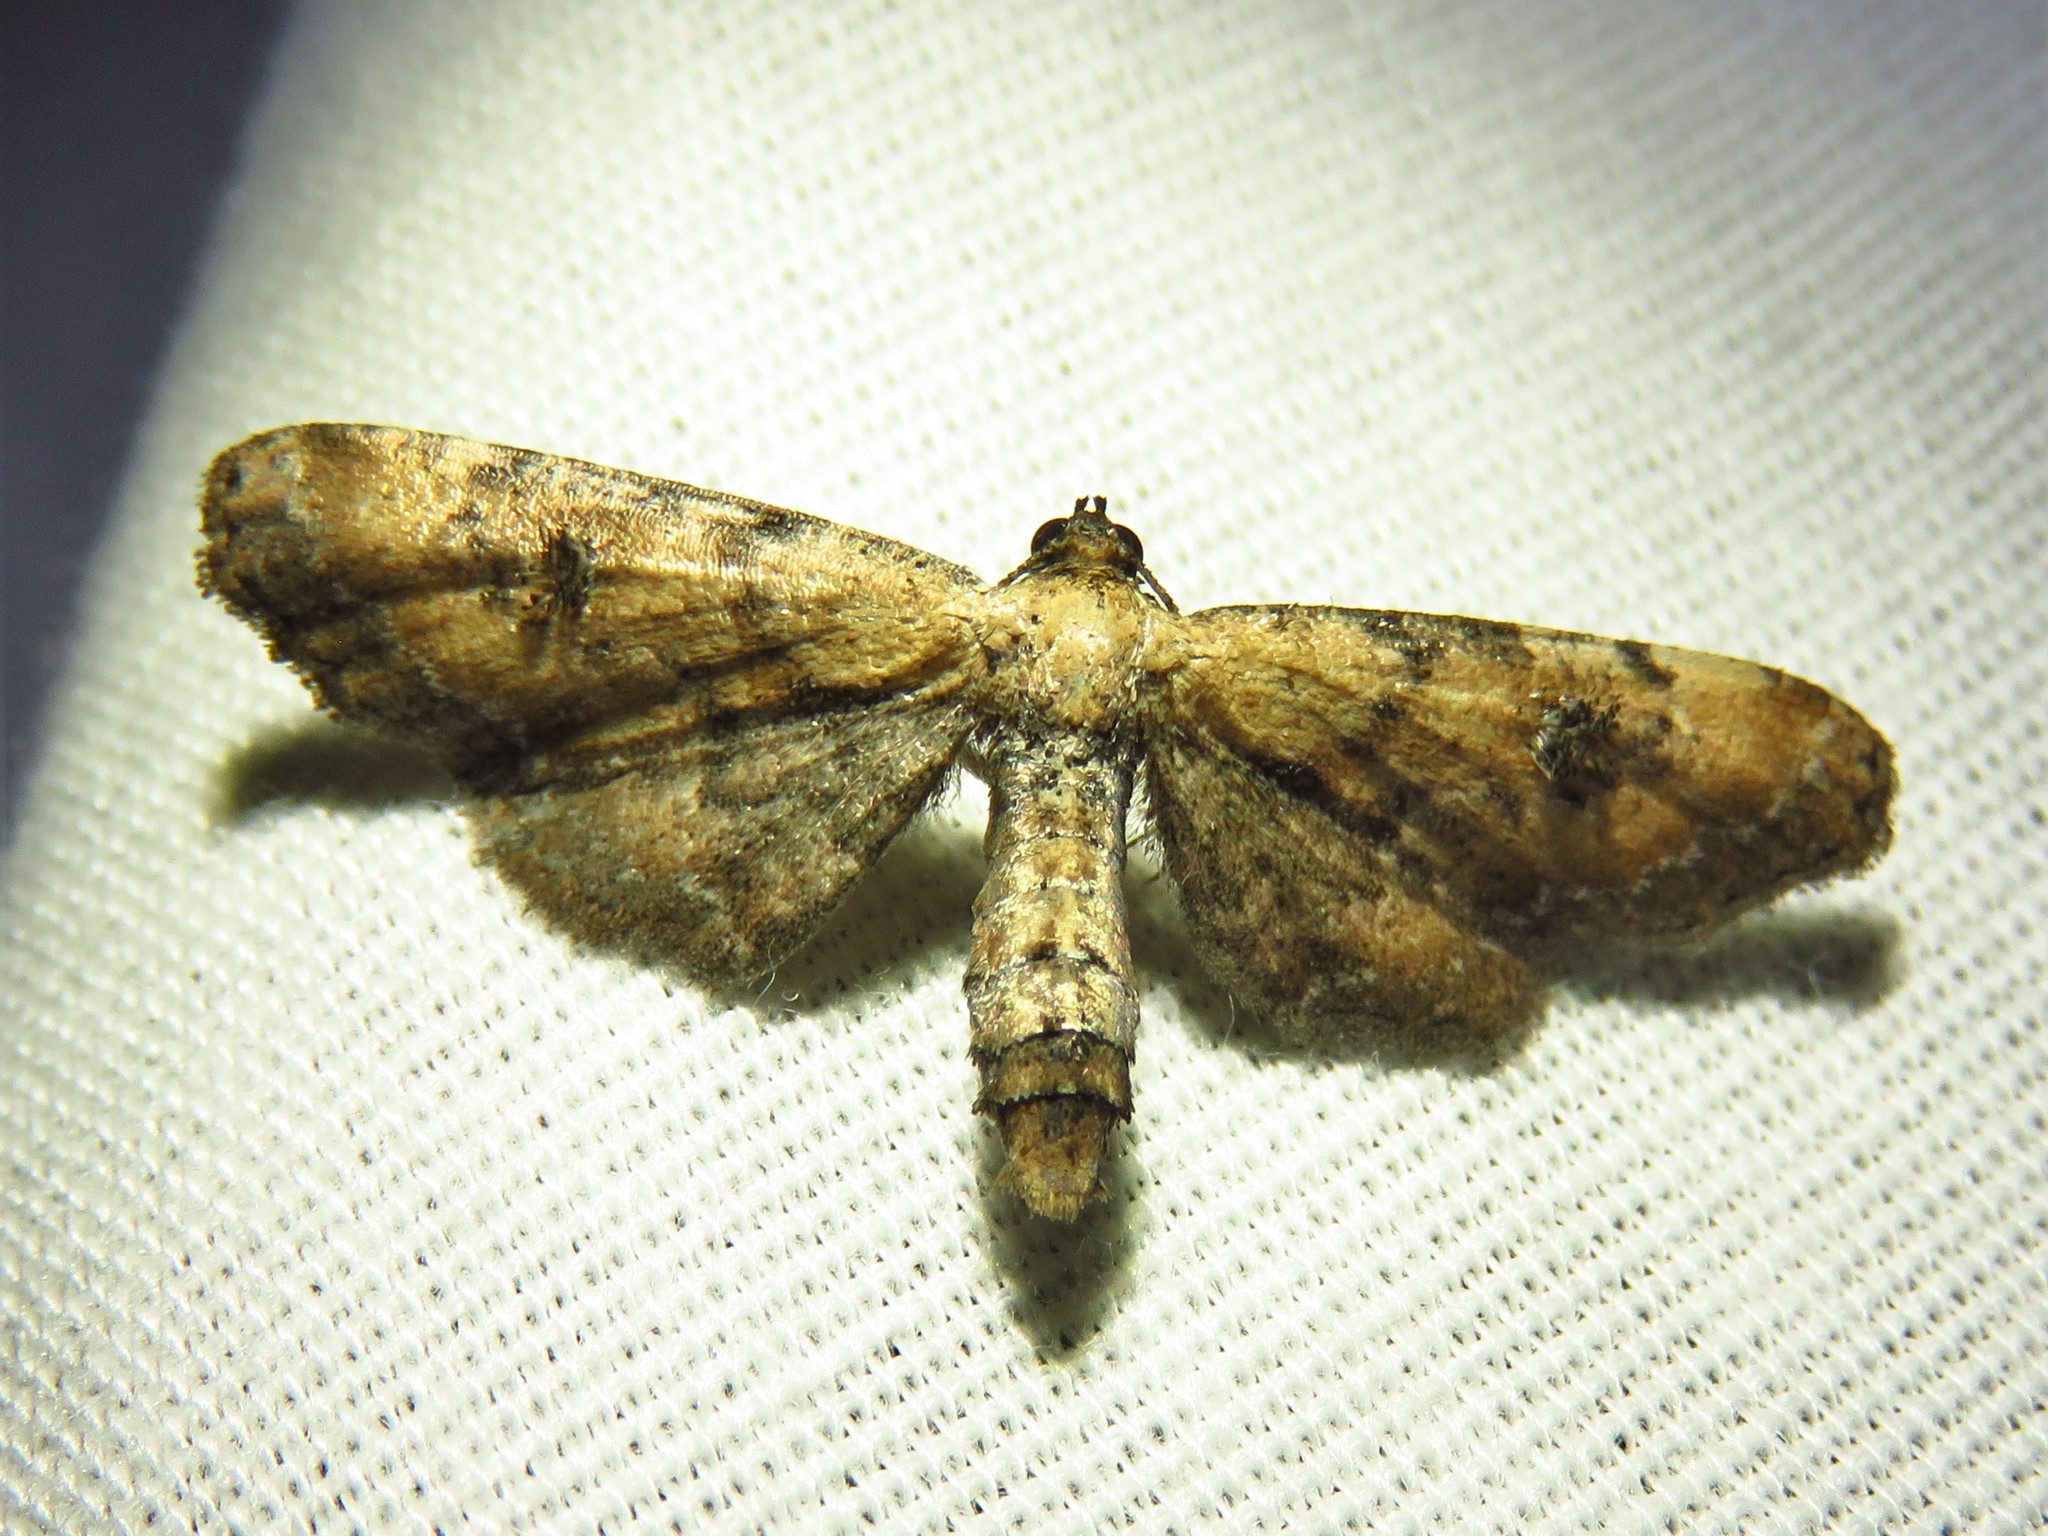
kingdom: Animalia
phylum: Arthropoda
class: Insecta
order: Lepidoptera
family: Geometridae
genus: Tornos
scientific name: Tornos scolopacinaria
